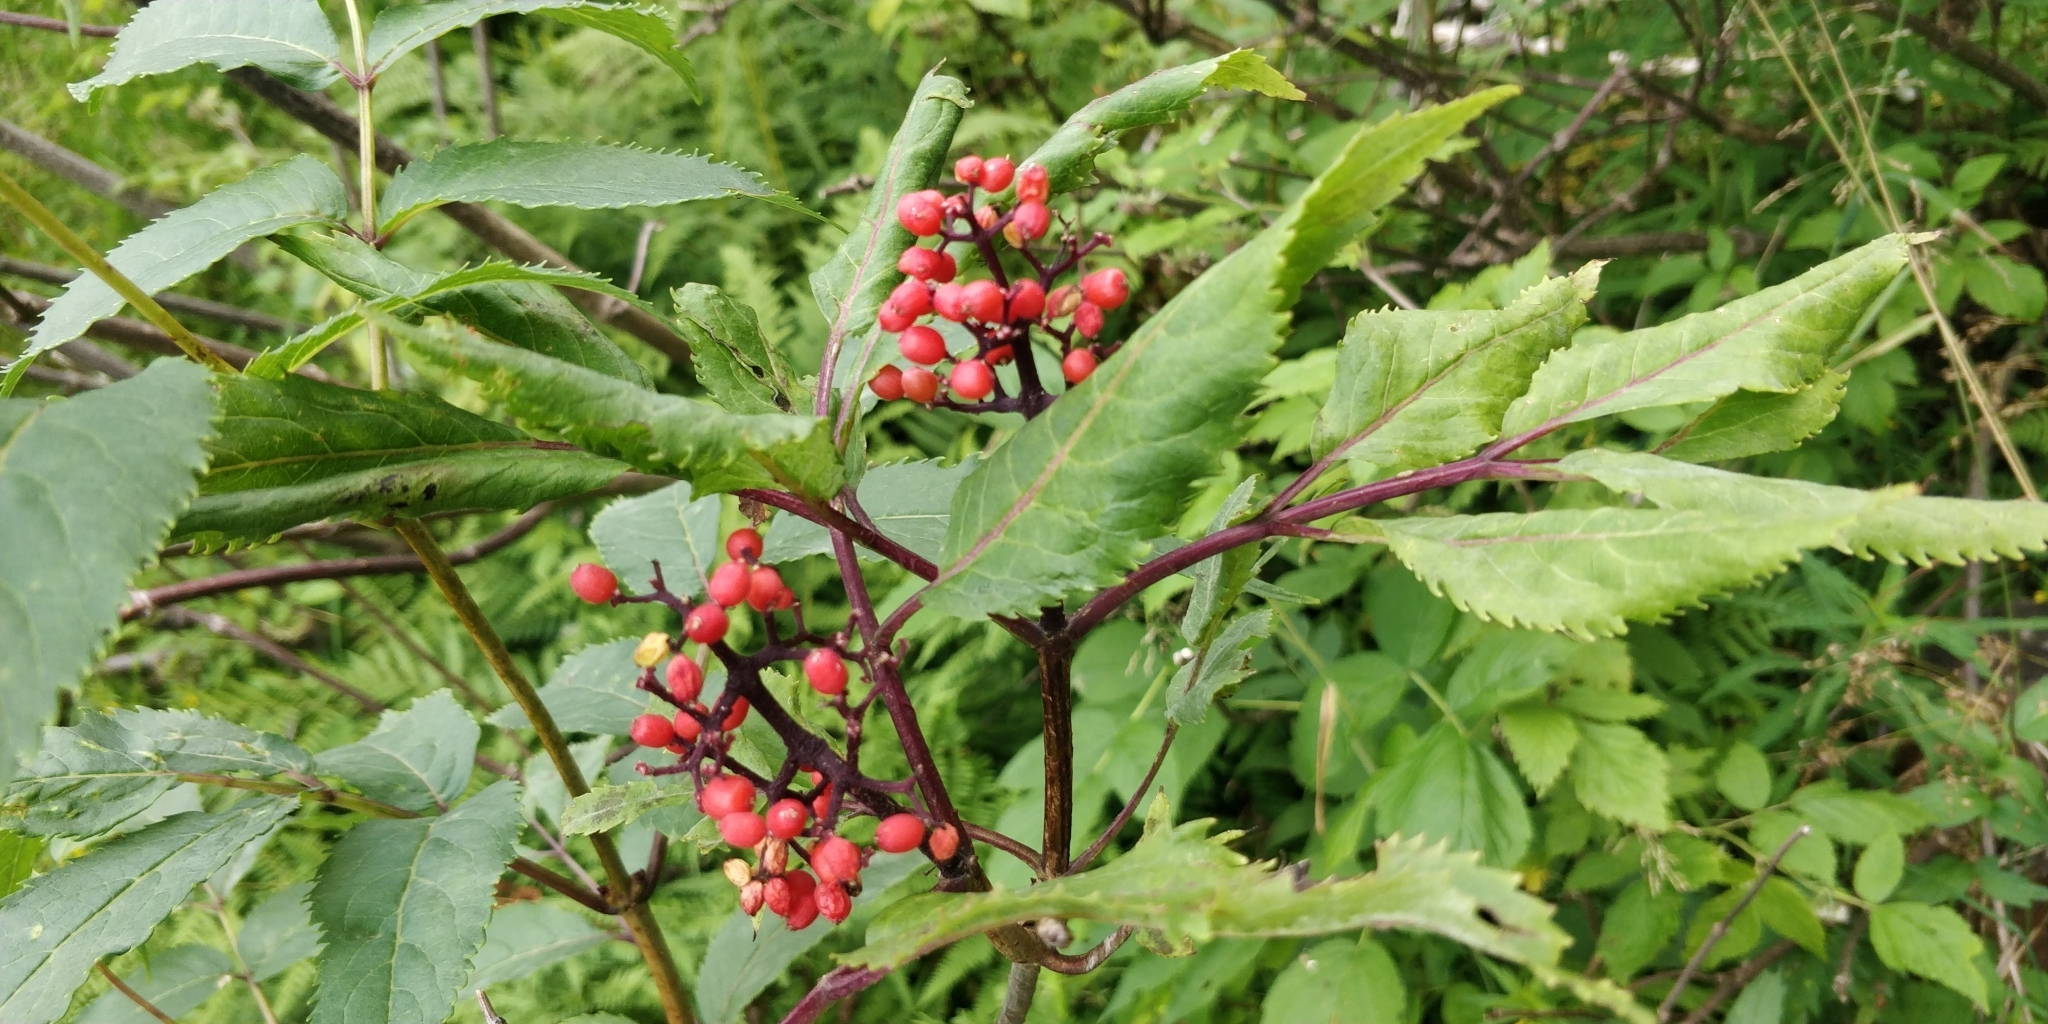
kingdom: Plantae
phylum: Tracheophyta
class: Magnoliopsida
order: Dipsacales
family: Viburnaceae
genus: Sambucus
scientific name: Sambucus racemosa
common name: Red-berried elder
